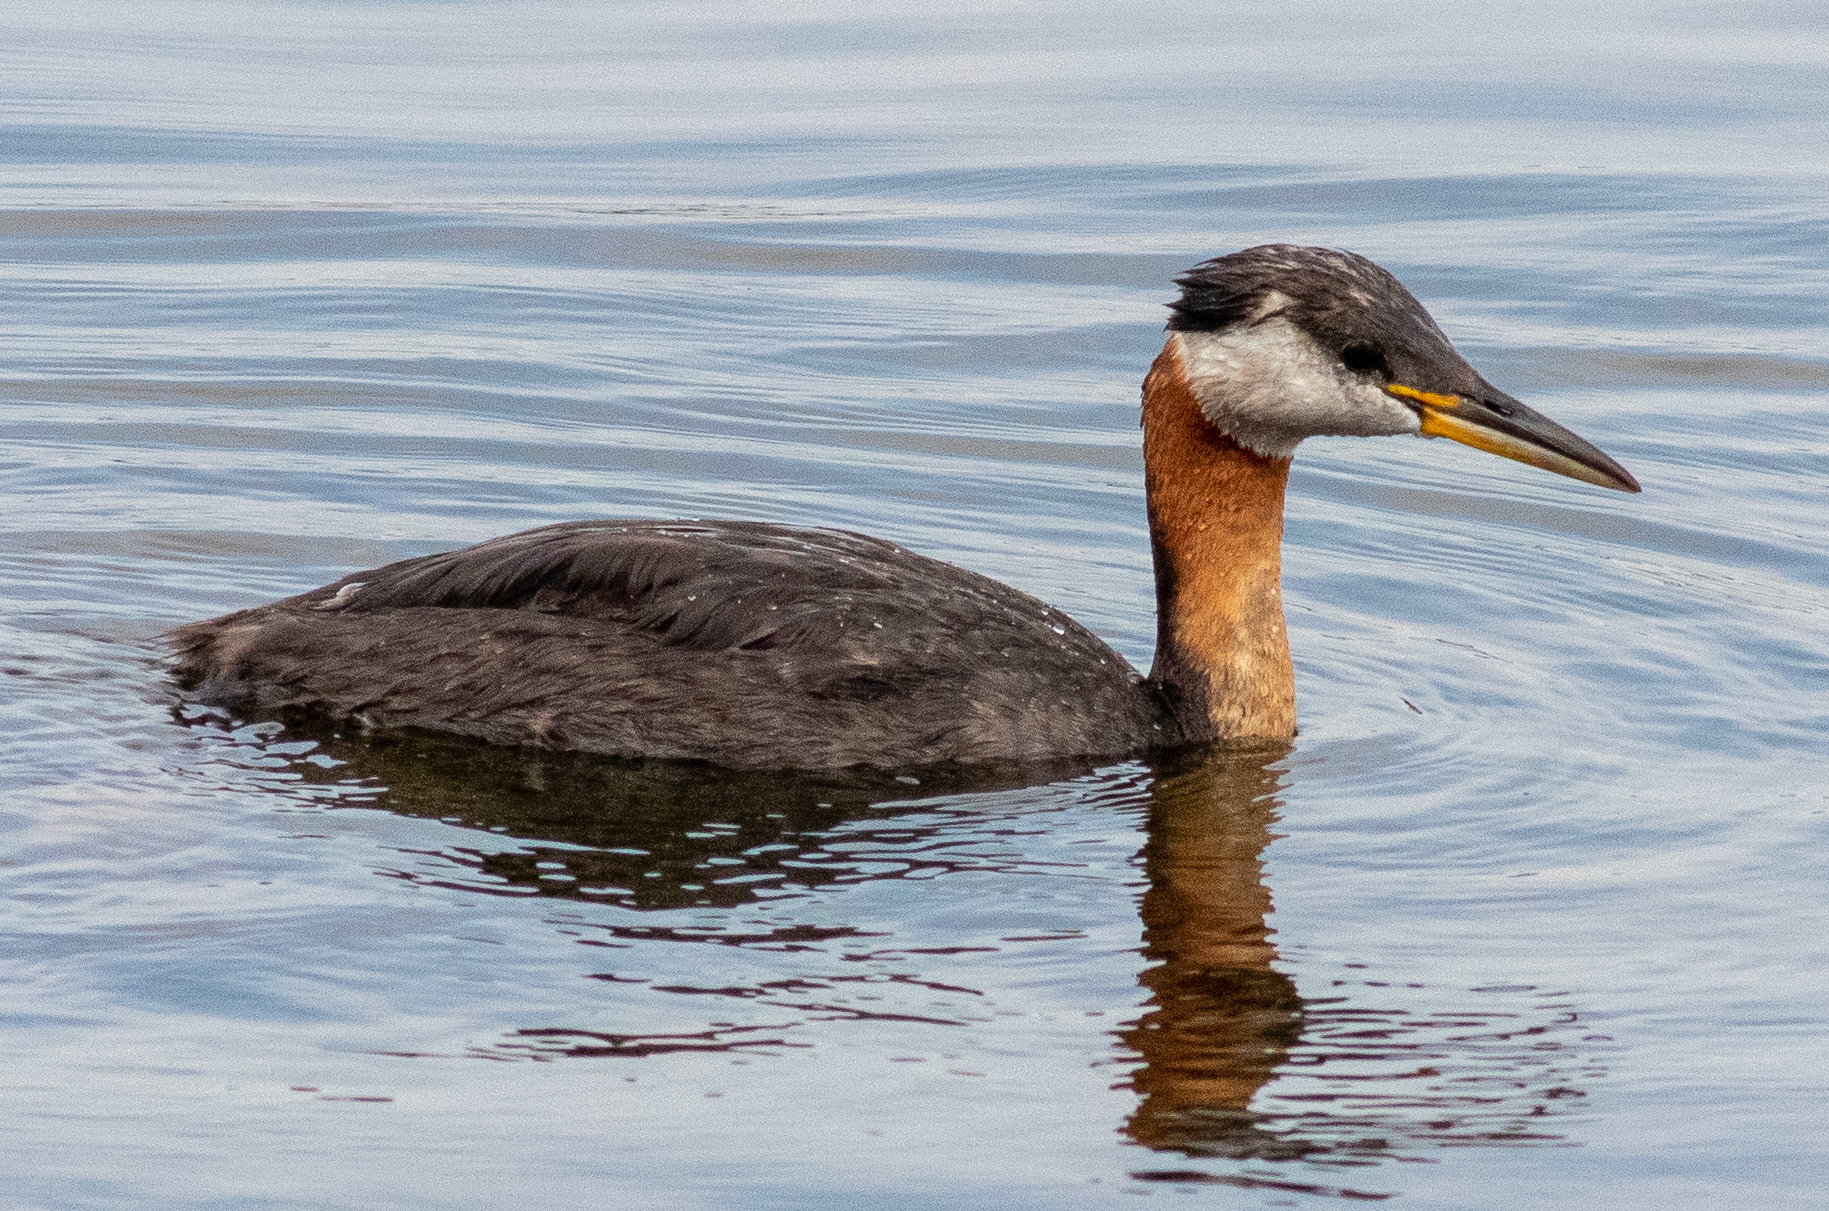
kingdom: Animalia
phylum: Chordata
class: Aves
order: Podicipediformes
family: Podicipedidae
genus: Podiceps
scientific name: Podiceps grisegena
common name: Red-necked grebe
